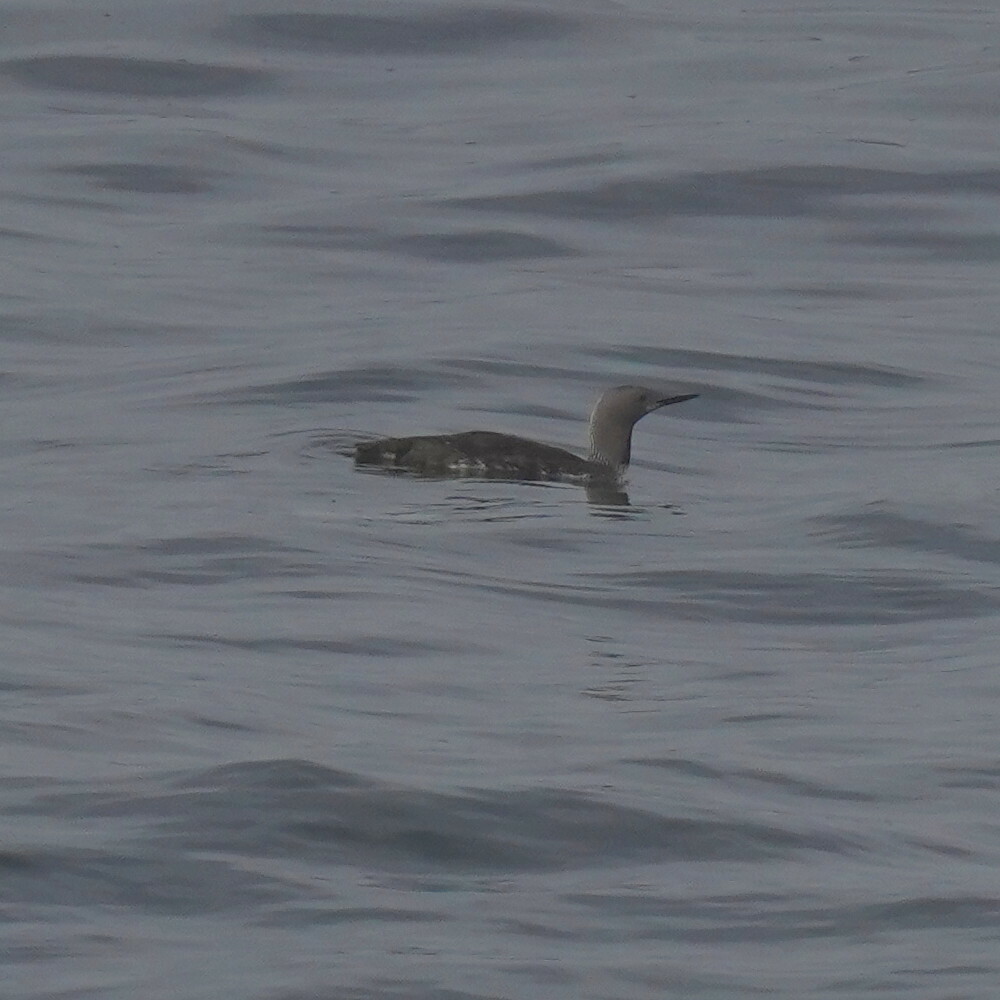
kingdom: Animalia
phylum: Chordata
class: Aves
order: Gaviiformes
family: Gaviidae
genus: Gavia
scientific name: Gavia stellata
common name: Red-throated loon
